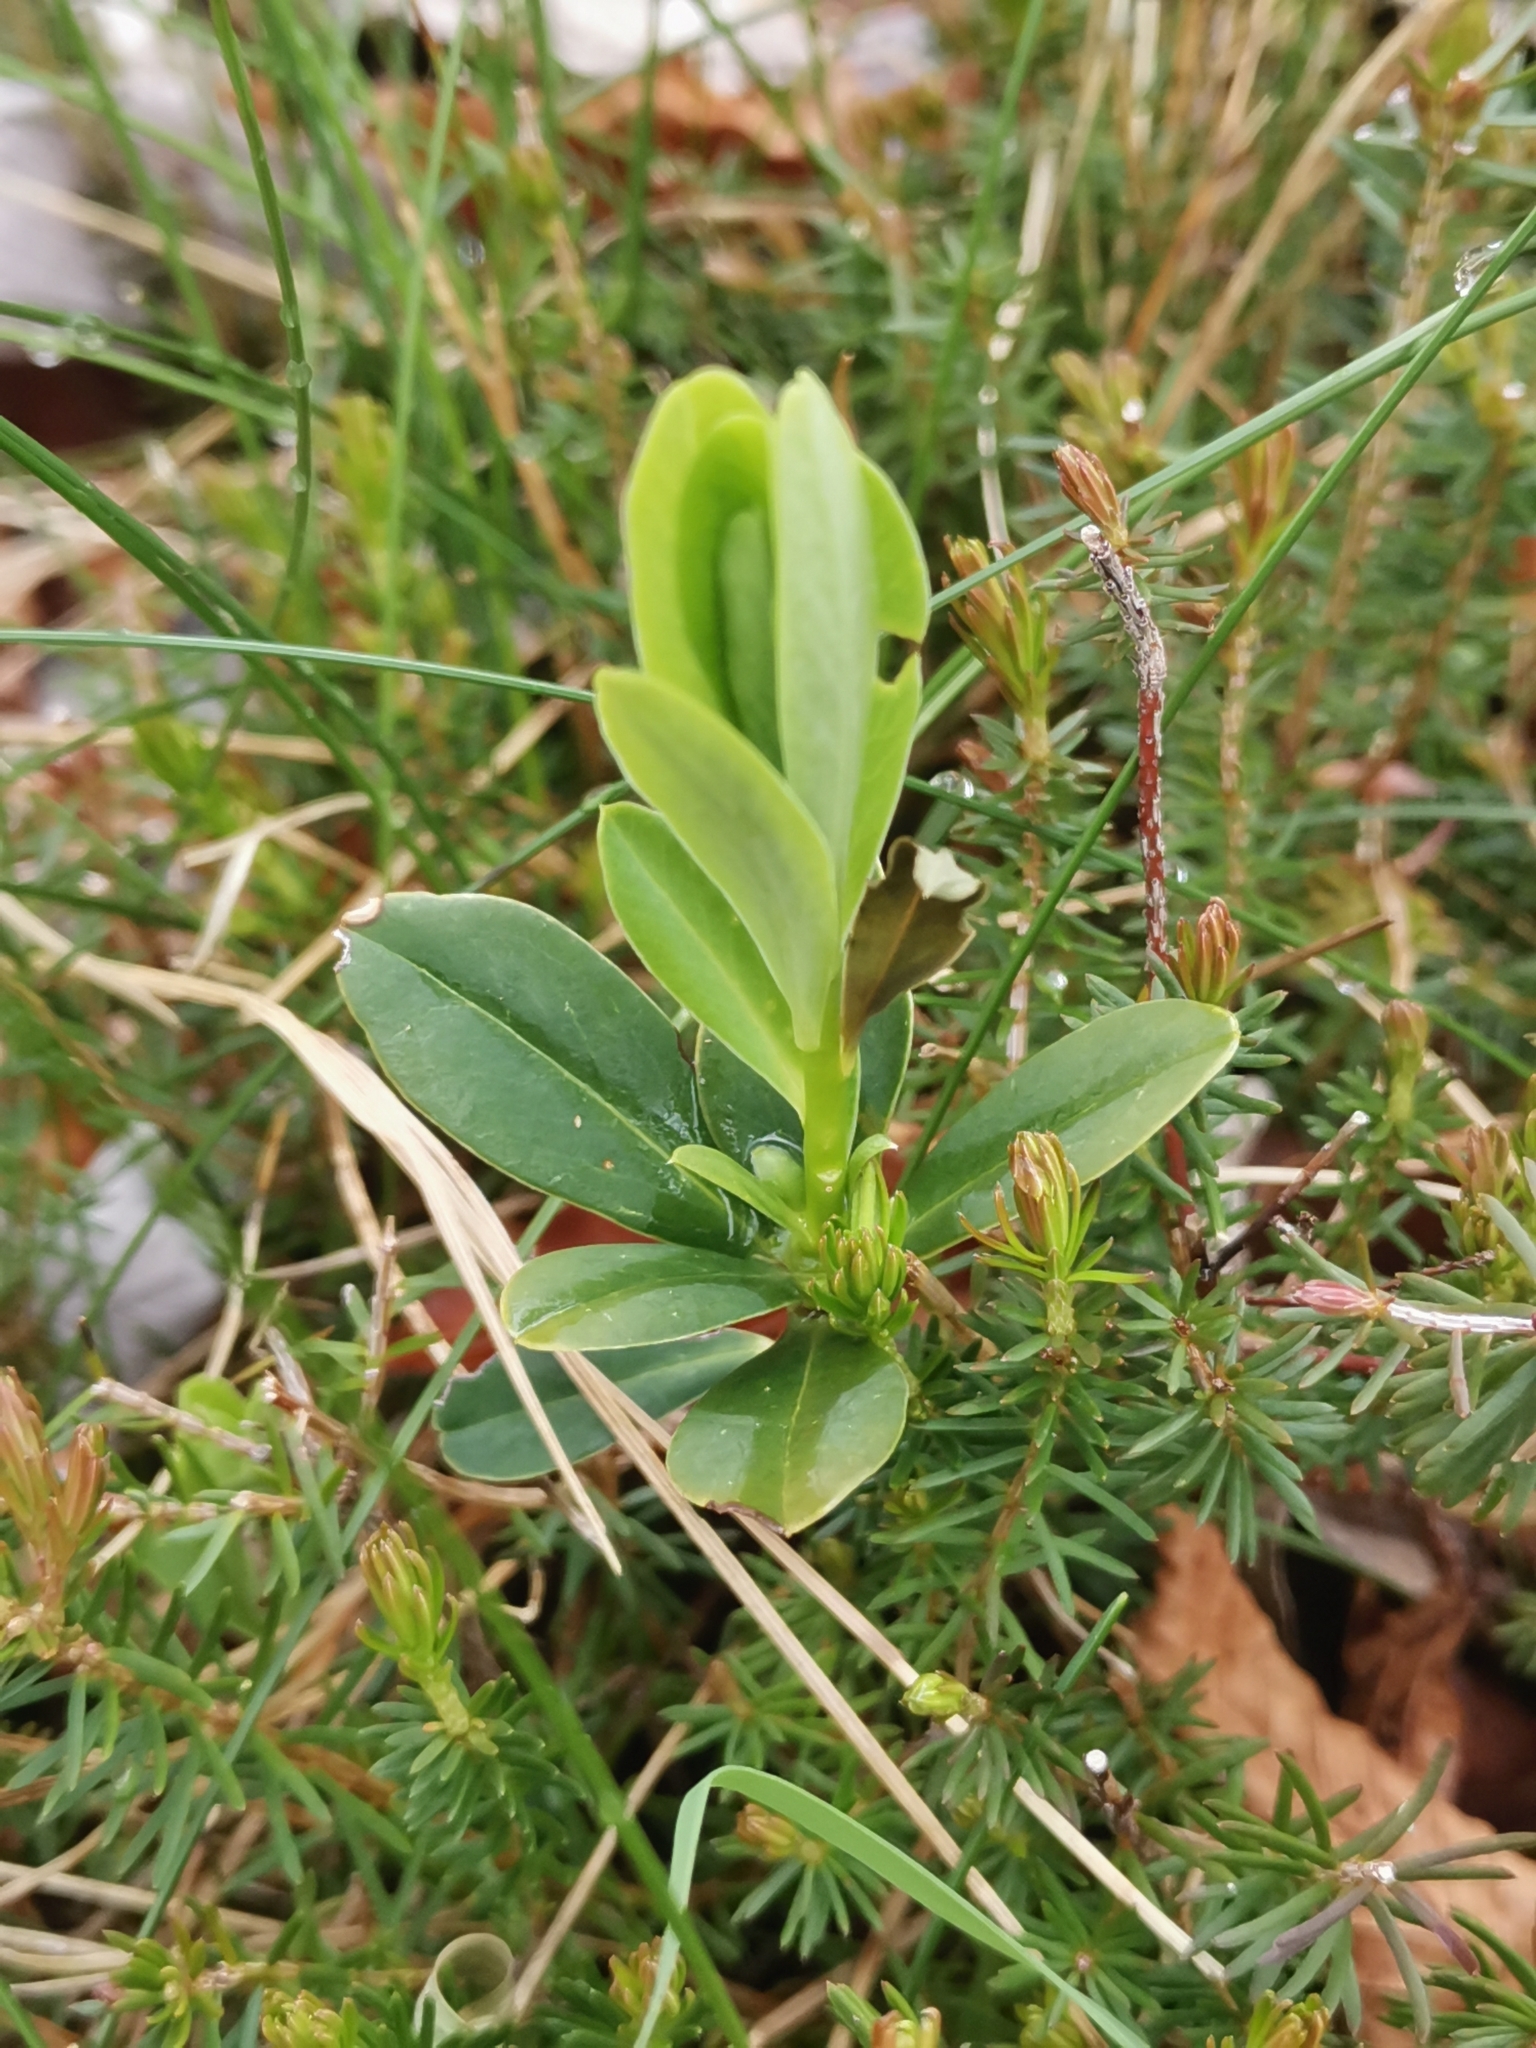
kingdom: Plantae
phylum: Tracheophyta
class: Magnoliopsida
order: Malvales
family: Thymelaeaceae
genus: Daphne
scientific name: Daphne blagayana
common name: Balkan daphne
